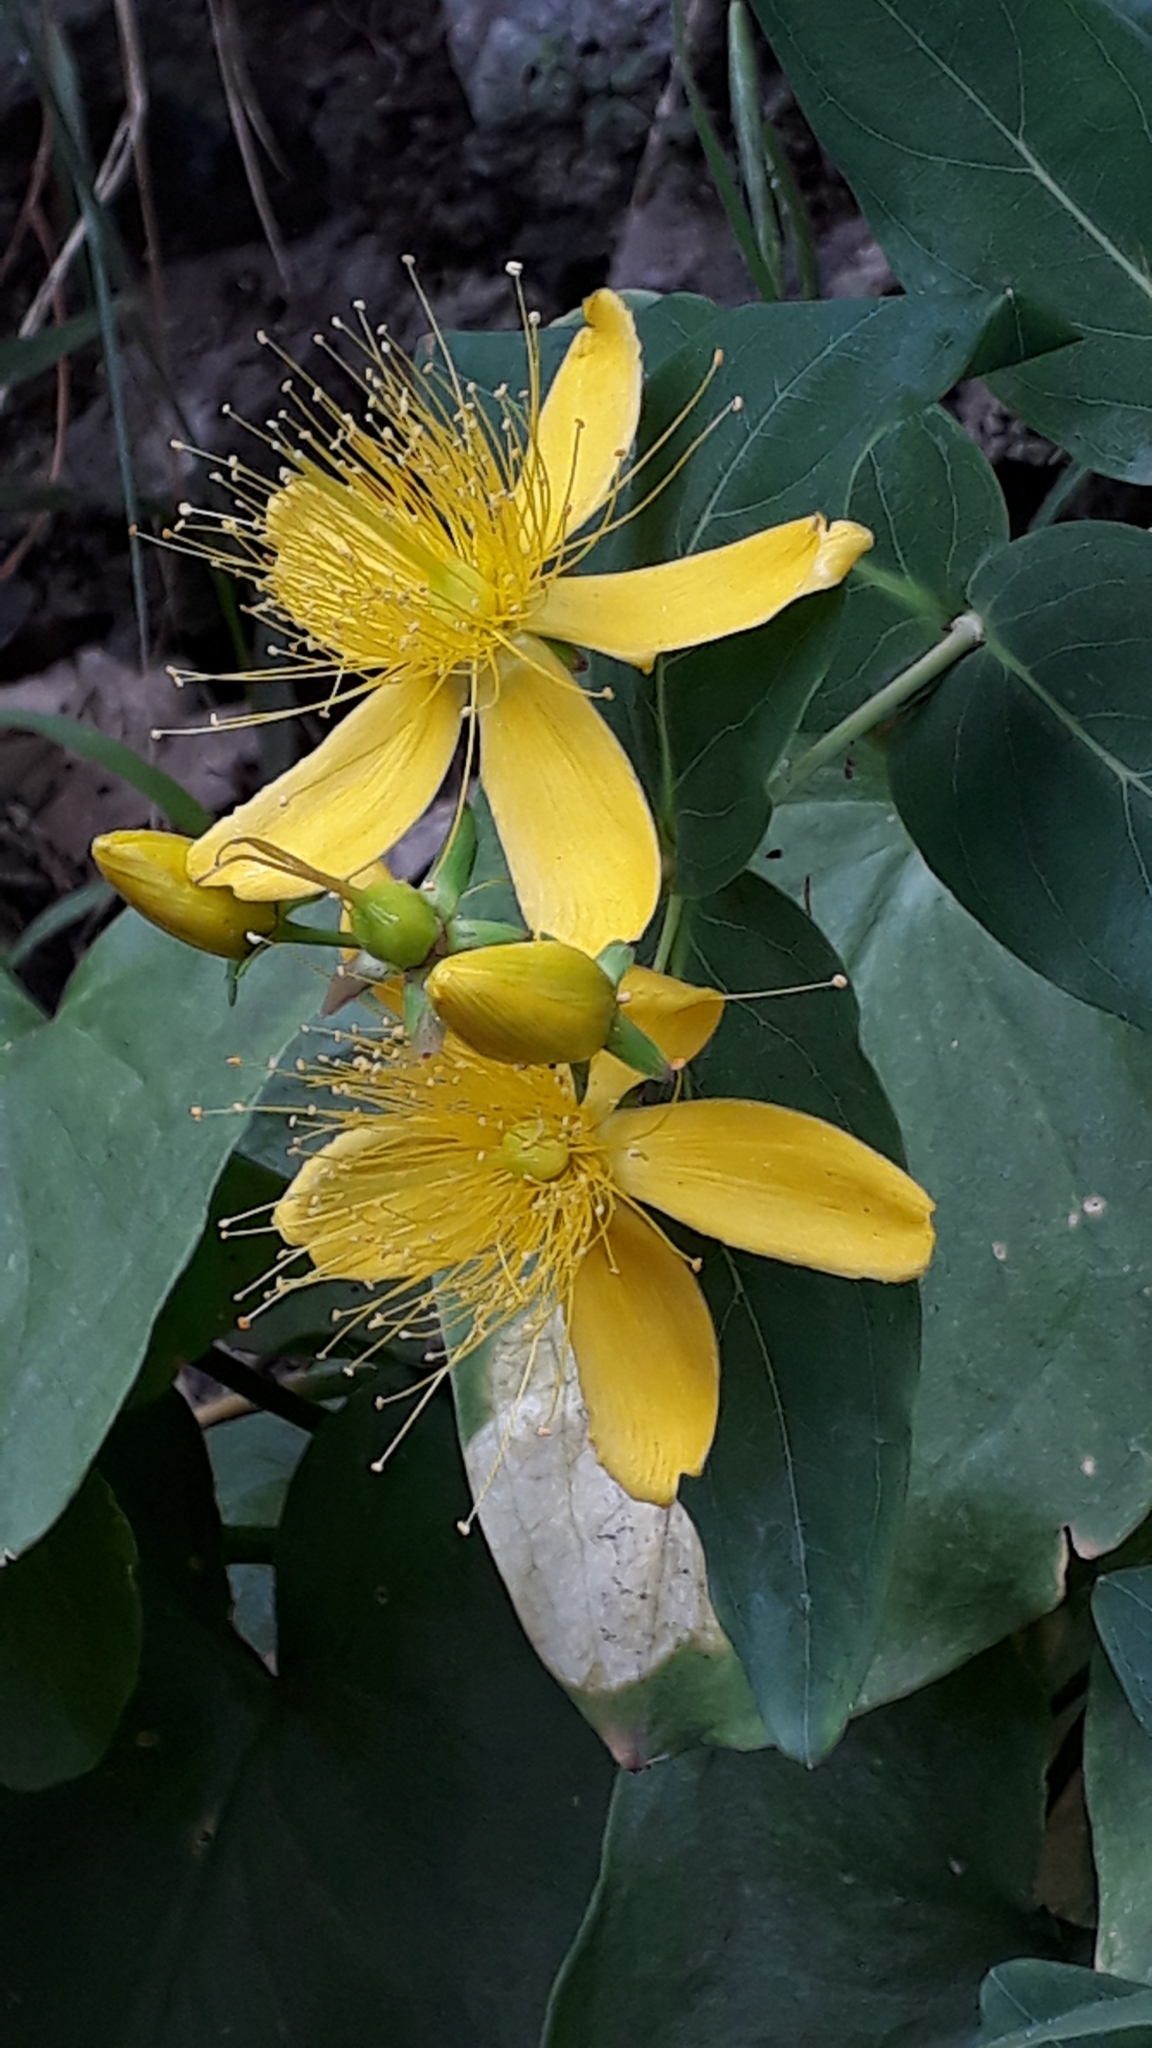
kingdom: Plantae
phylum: Tracheophyta
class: Magnoliopsida
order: Malpighiales
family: Hypericaceae
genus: Hypericum
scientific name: Hypericum grandifolium
